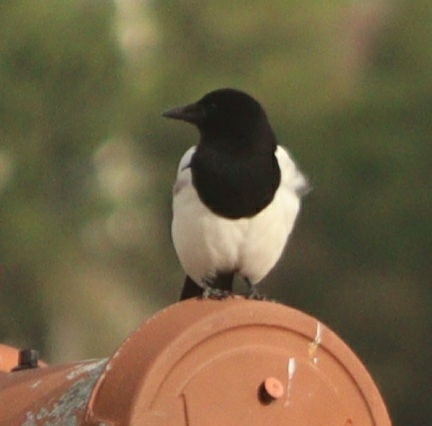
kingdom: Animalia
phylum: Chordata
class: Aves
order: Passeriformes
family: Corvidae
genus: Pica
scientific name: Pica pica
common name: Eurasian magpie
